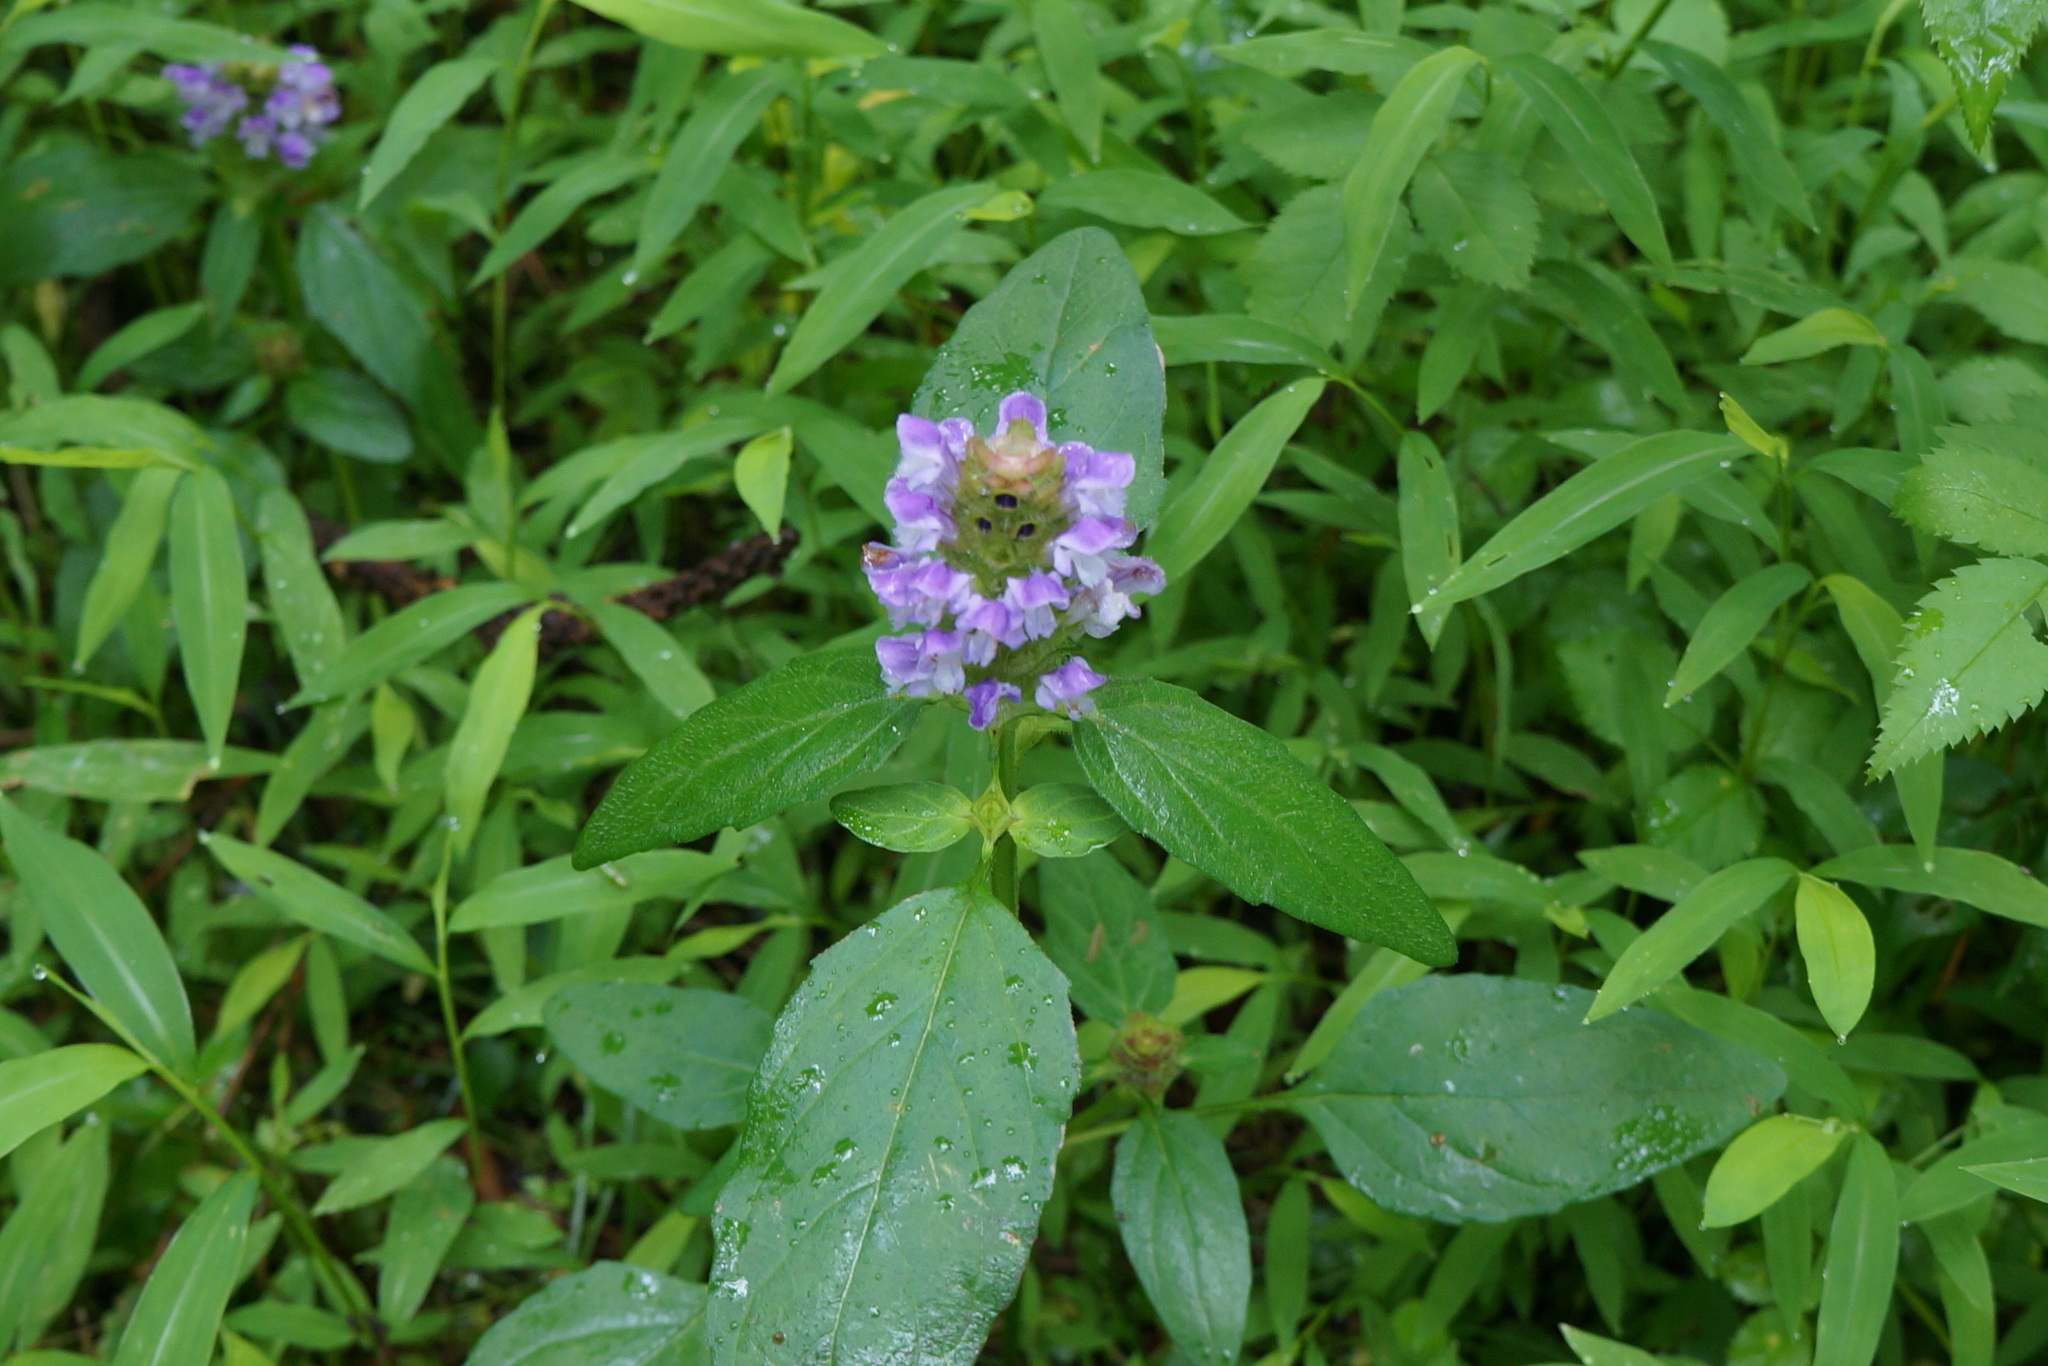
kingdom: Plantae
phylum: Tracheophyta
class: Magnoliopsida
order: Lamiales
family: Lamiaceae
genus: Prunella
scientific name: Prunella vulgaris
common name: Heal-all
